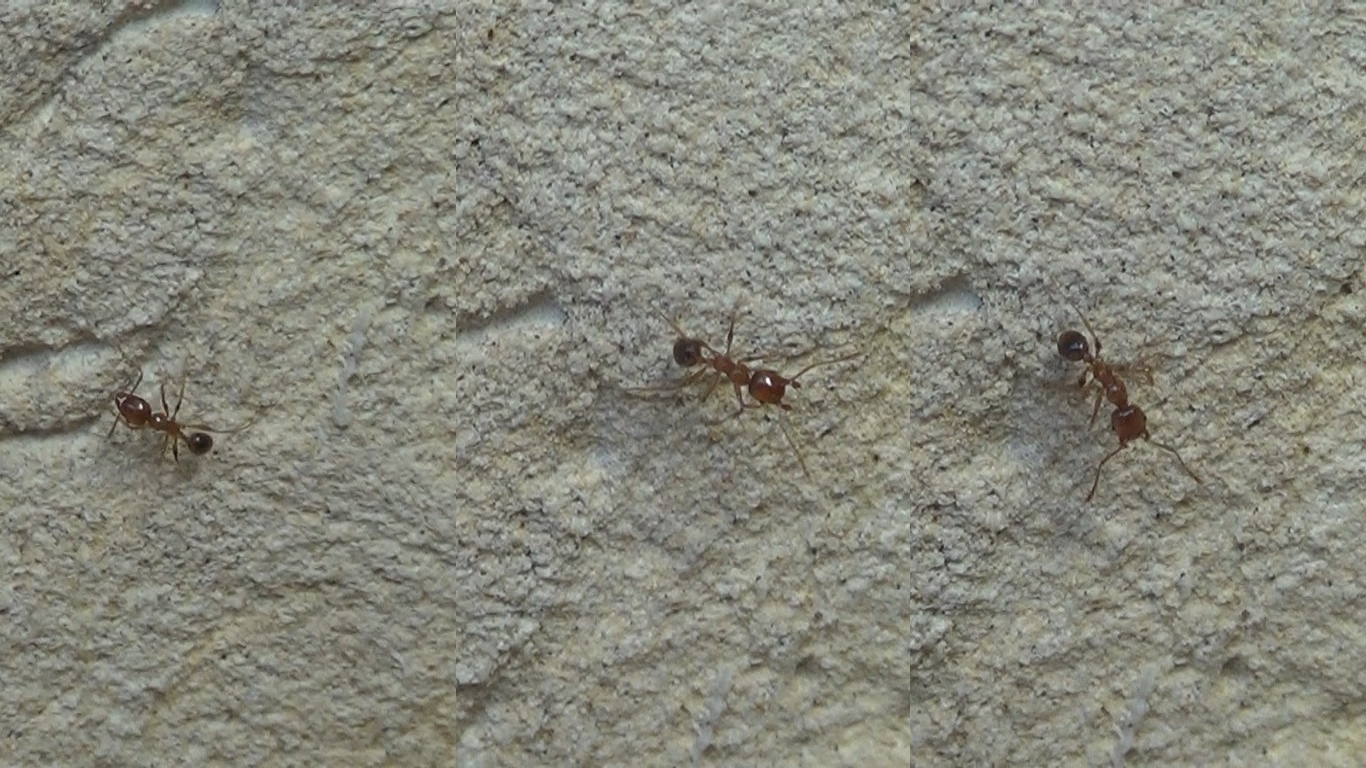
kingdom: Animalia
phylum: Arthropoda
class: Insecta
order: Hymenoptera
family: Formicidae
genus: Pheidole
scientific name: Pheidole pallidula
